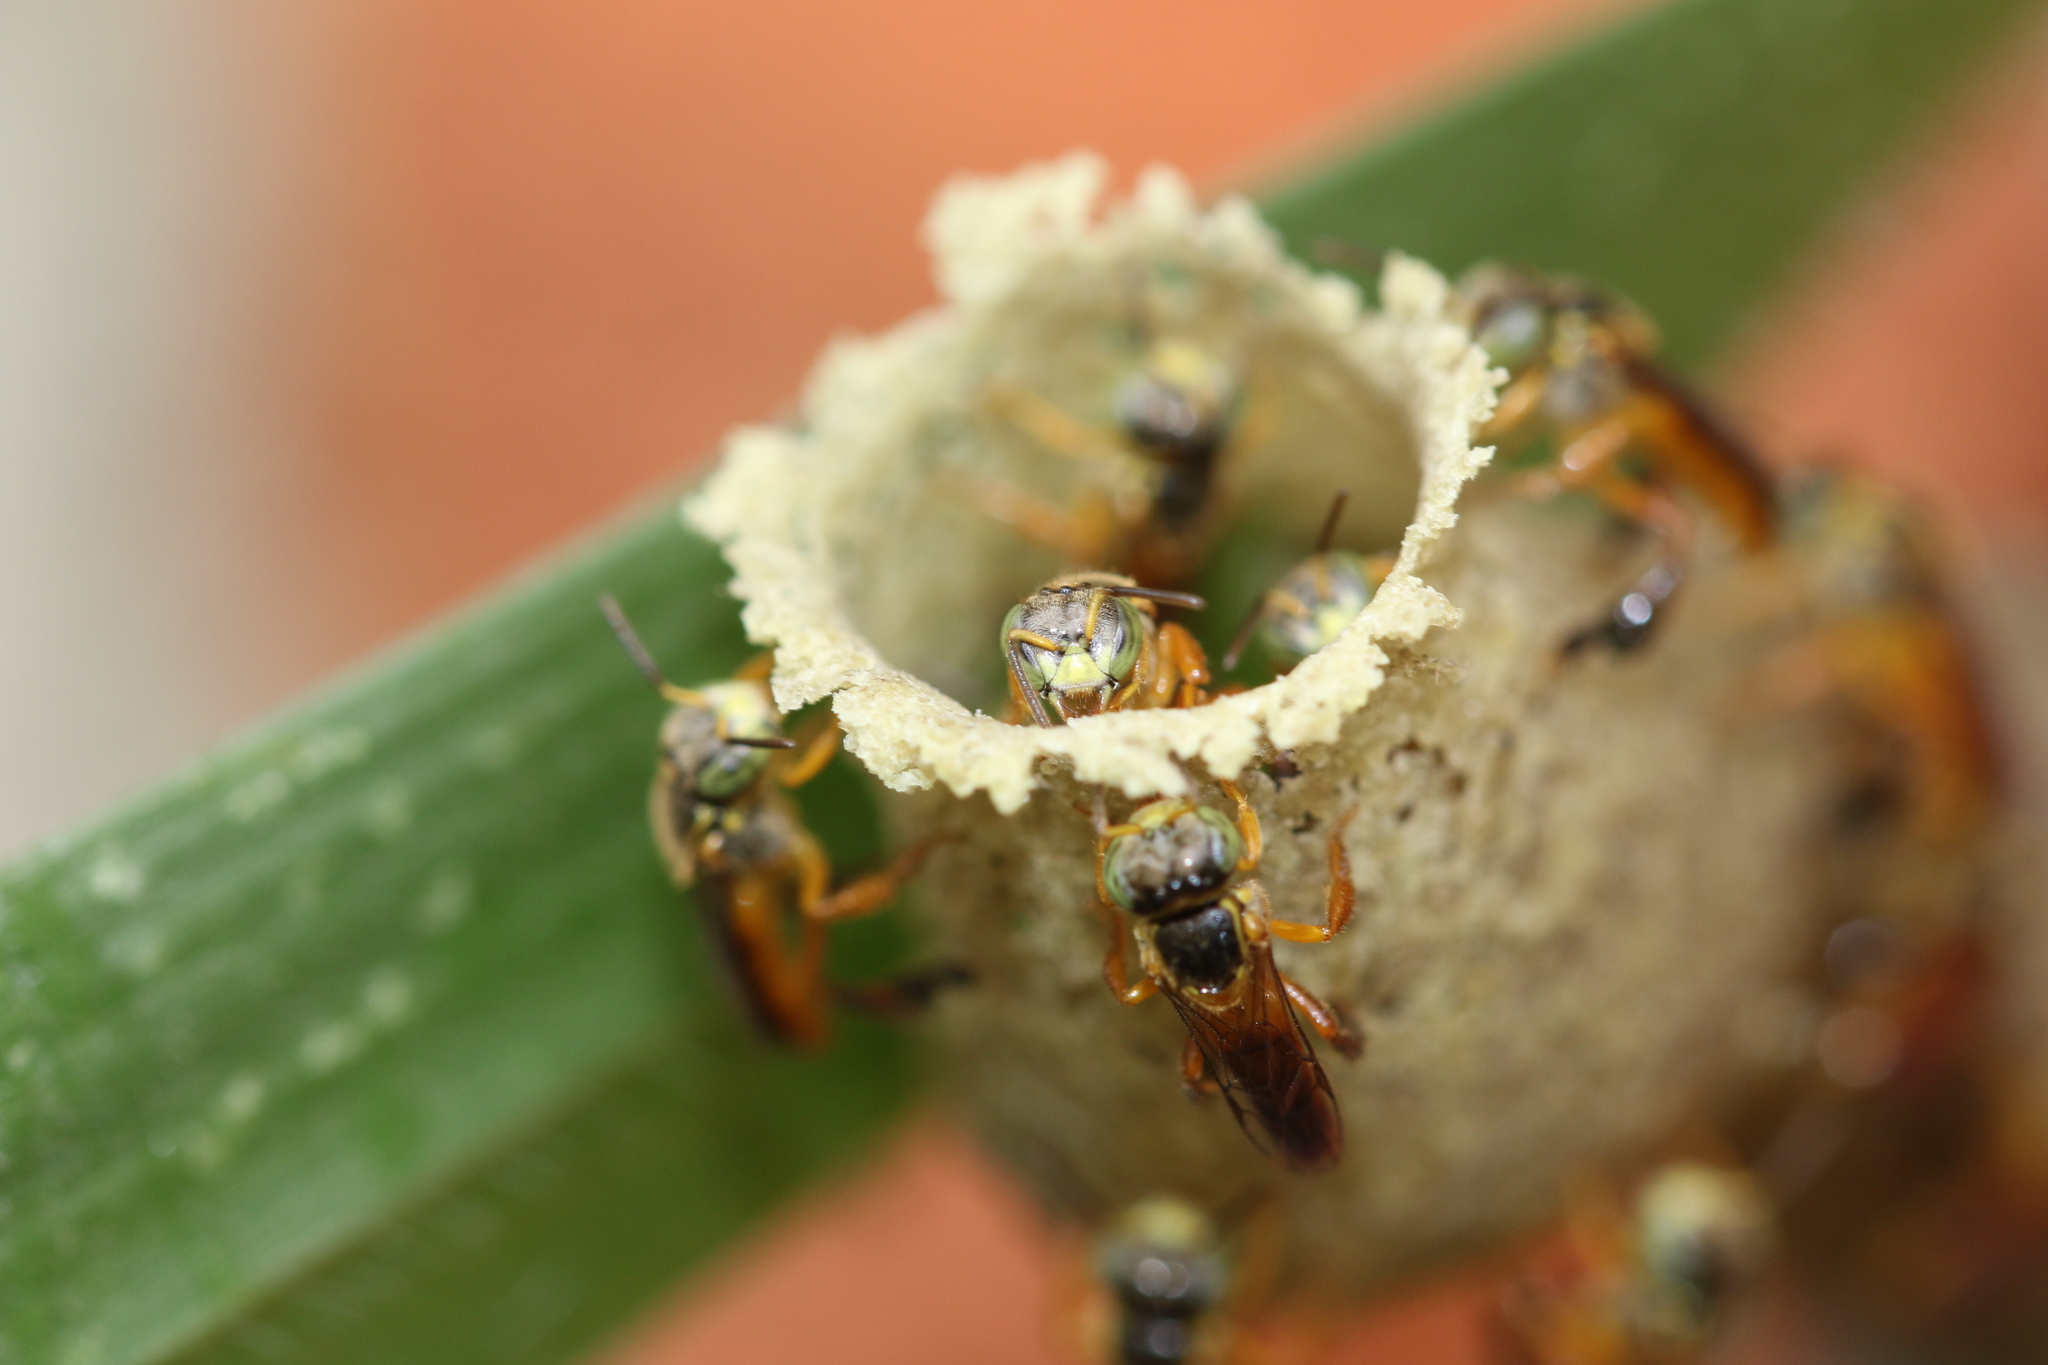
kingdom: Animalia
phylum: Arthropoda
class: Insecta
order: Hymenoptera
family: Apidae
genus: Tetragonisca
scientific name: Tetragonisca angustula
